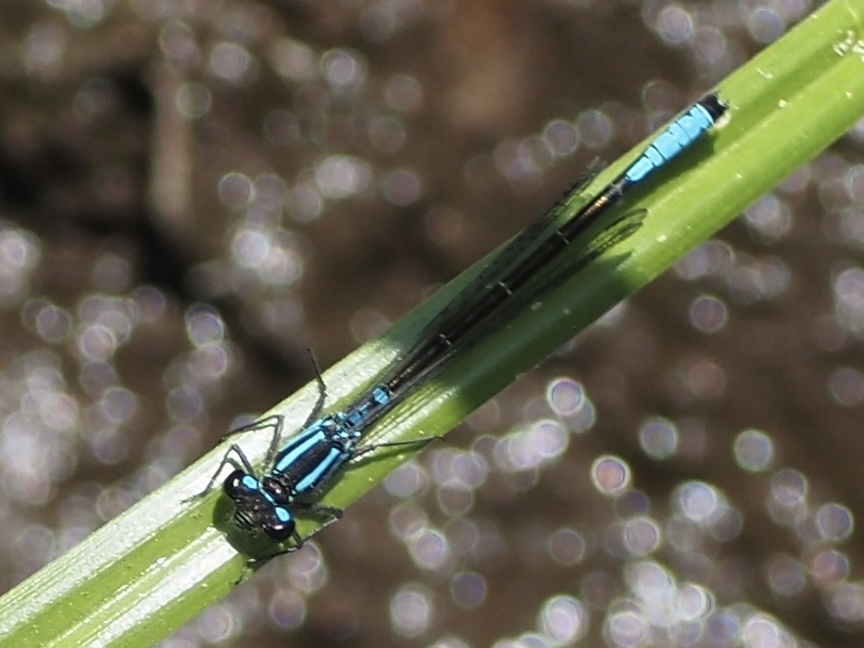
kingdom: Animalia
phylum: Arthropoda
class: Insecta
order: Odonata
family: Coenagrionidae
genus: Ischnura
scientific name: Ischnura erratica
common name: Swift forktail
